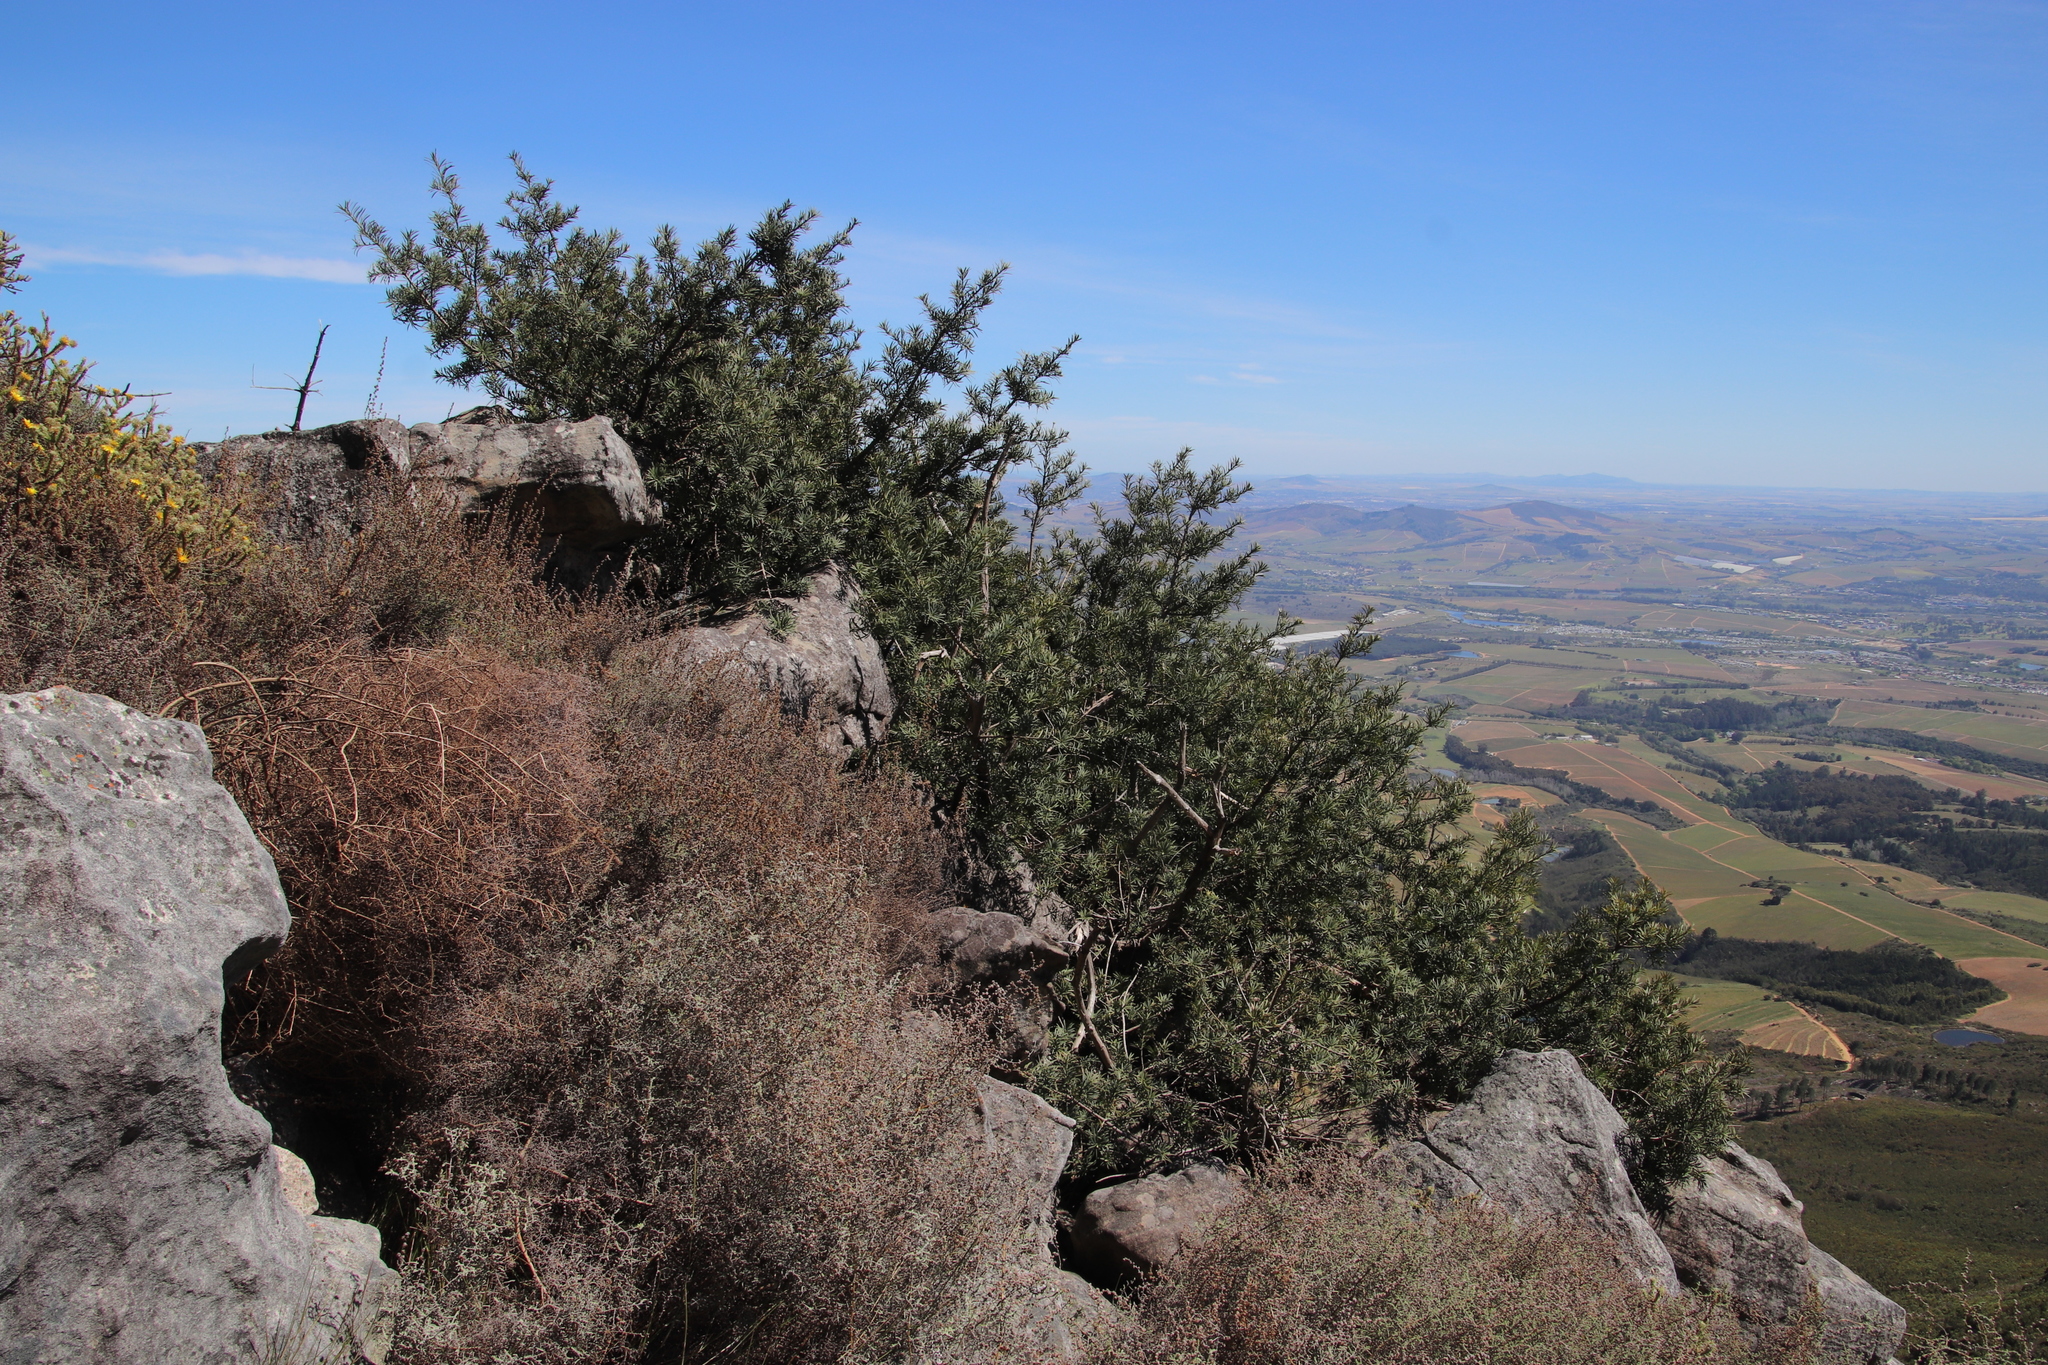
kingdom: Plantae
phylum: Tracheophyta
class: Pinopsida
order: Pinales
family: Podocarpaceae
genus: Podocarpus
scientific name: Podocarpus elongatus
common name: Breede river yellowwood
